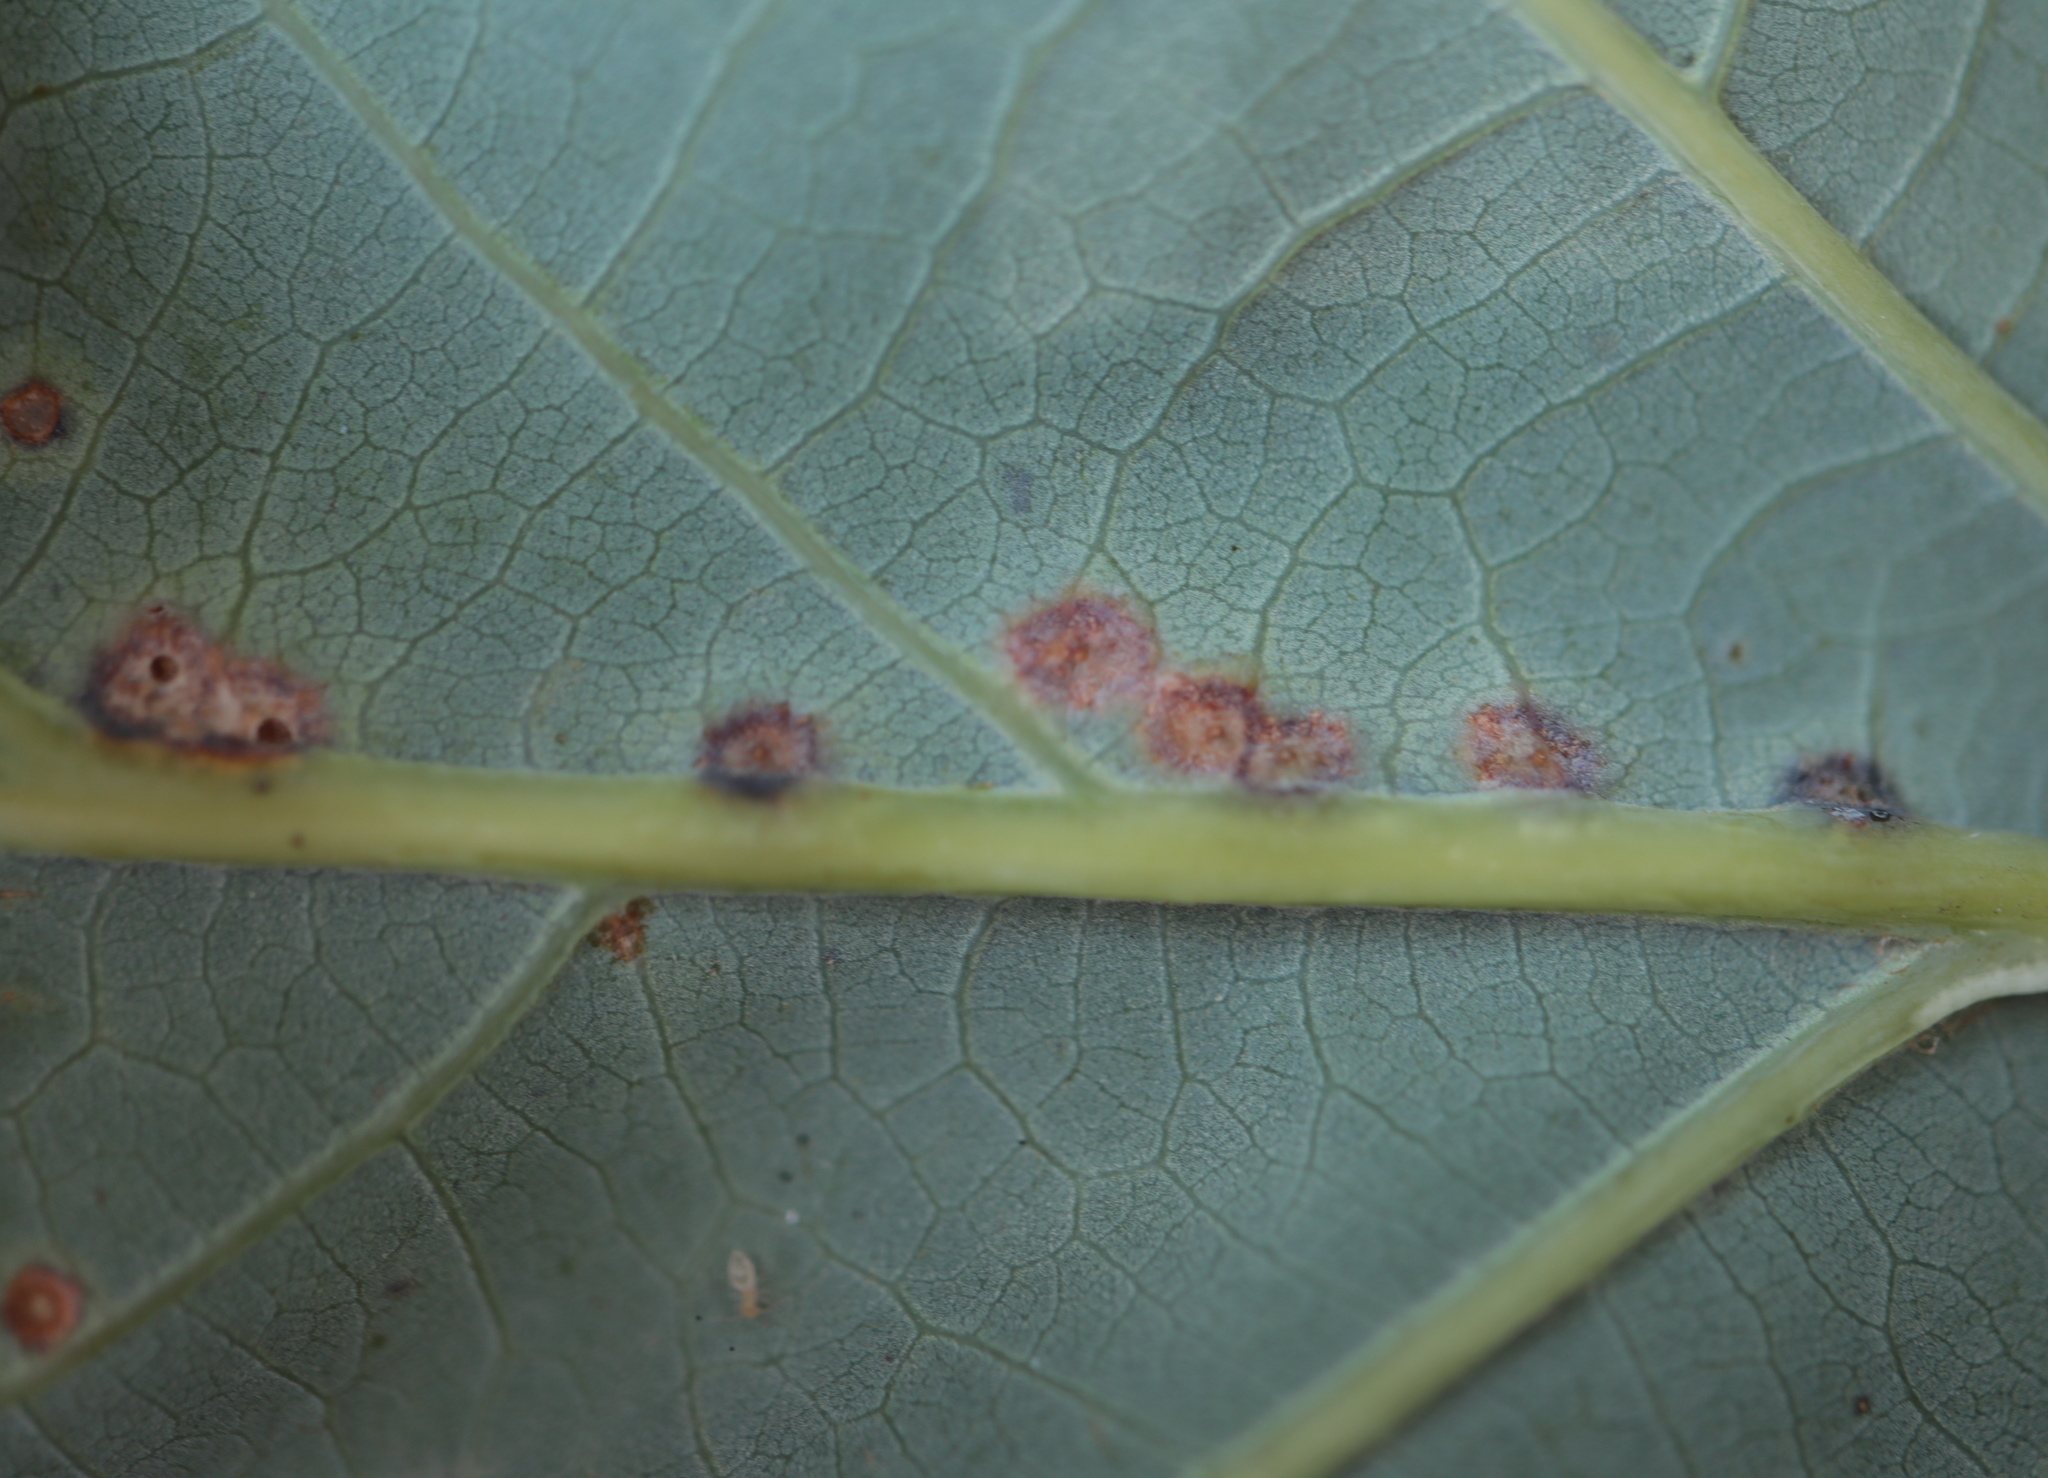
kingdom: Animalia
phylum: Arthropoda
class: Insecta
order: Hymenoptera
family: Cynipidae
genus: Neuroterus
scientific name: Neuroterus niger
